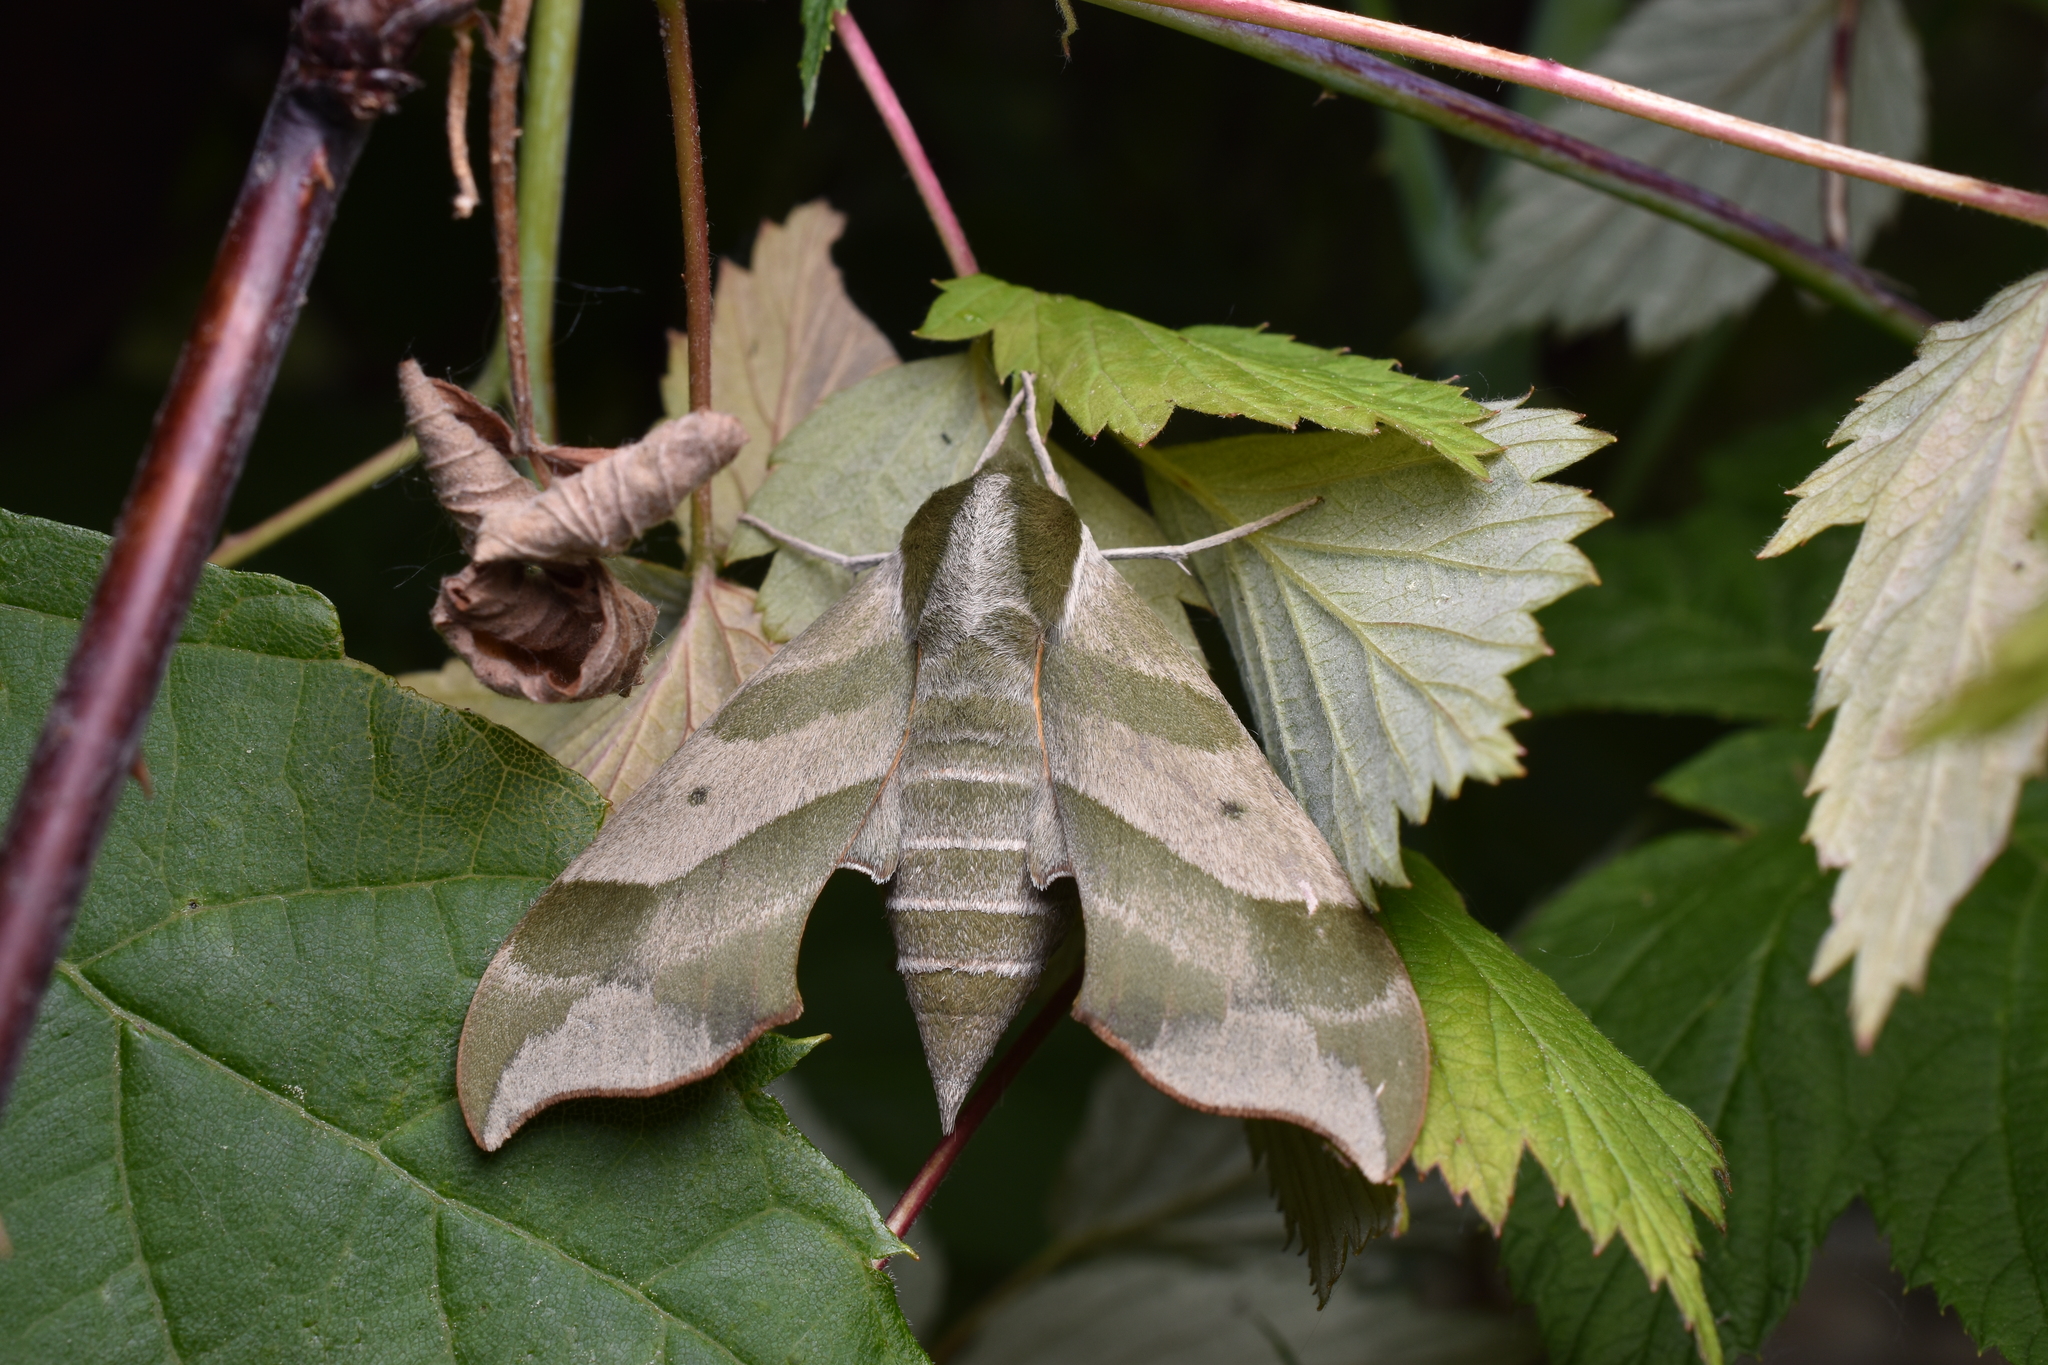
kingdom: Animalia
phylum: Arthropoda
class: Insecta
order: Lepidoptera
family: Sphingidae
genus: Darapsa
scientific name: Darapsa myron
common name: Hog sphinx
